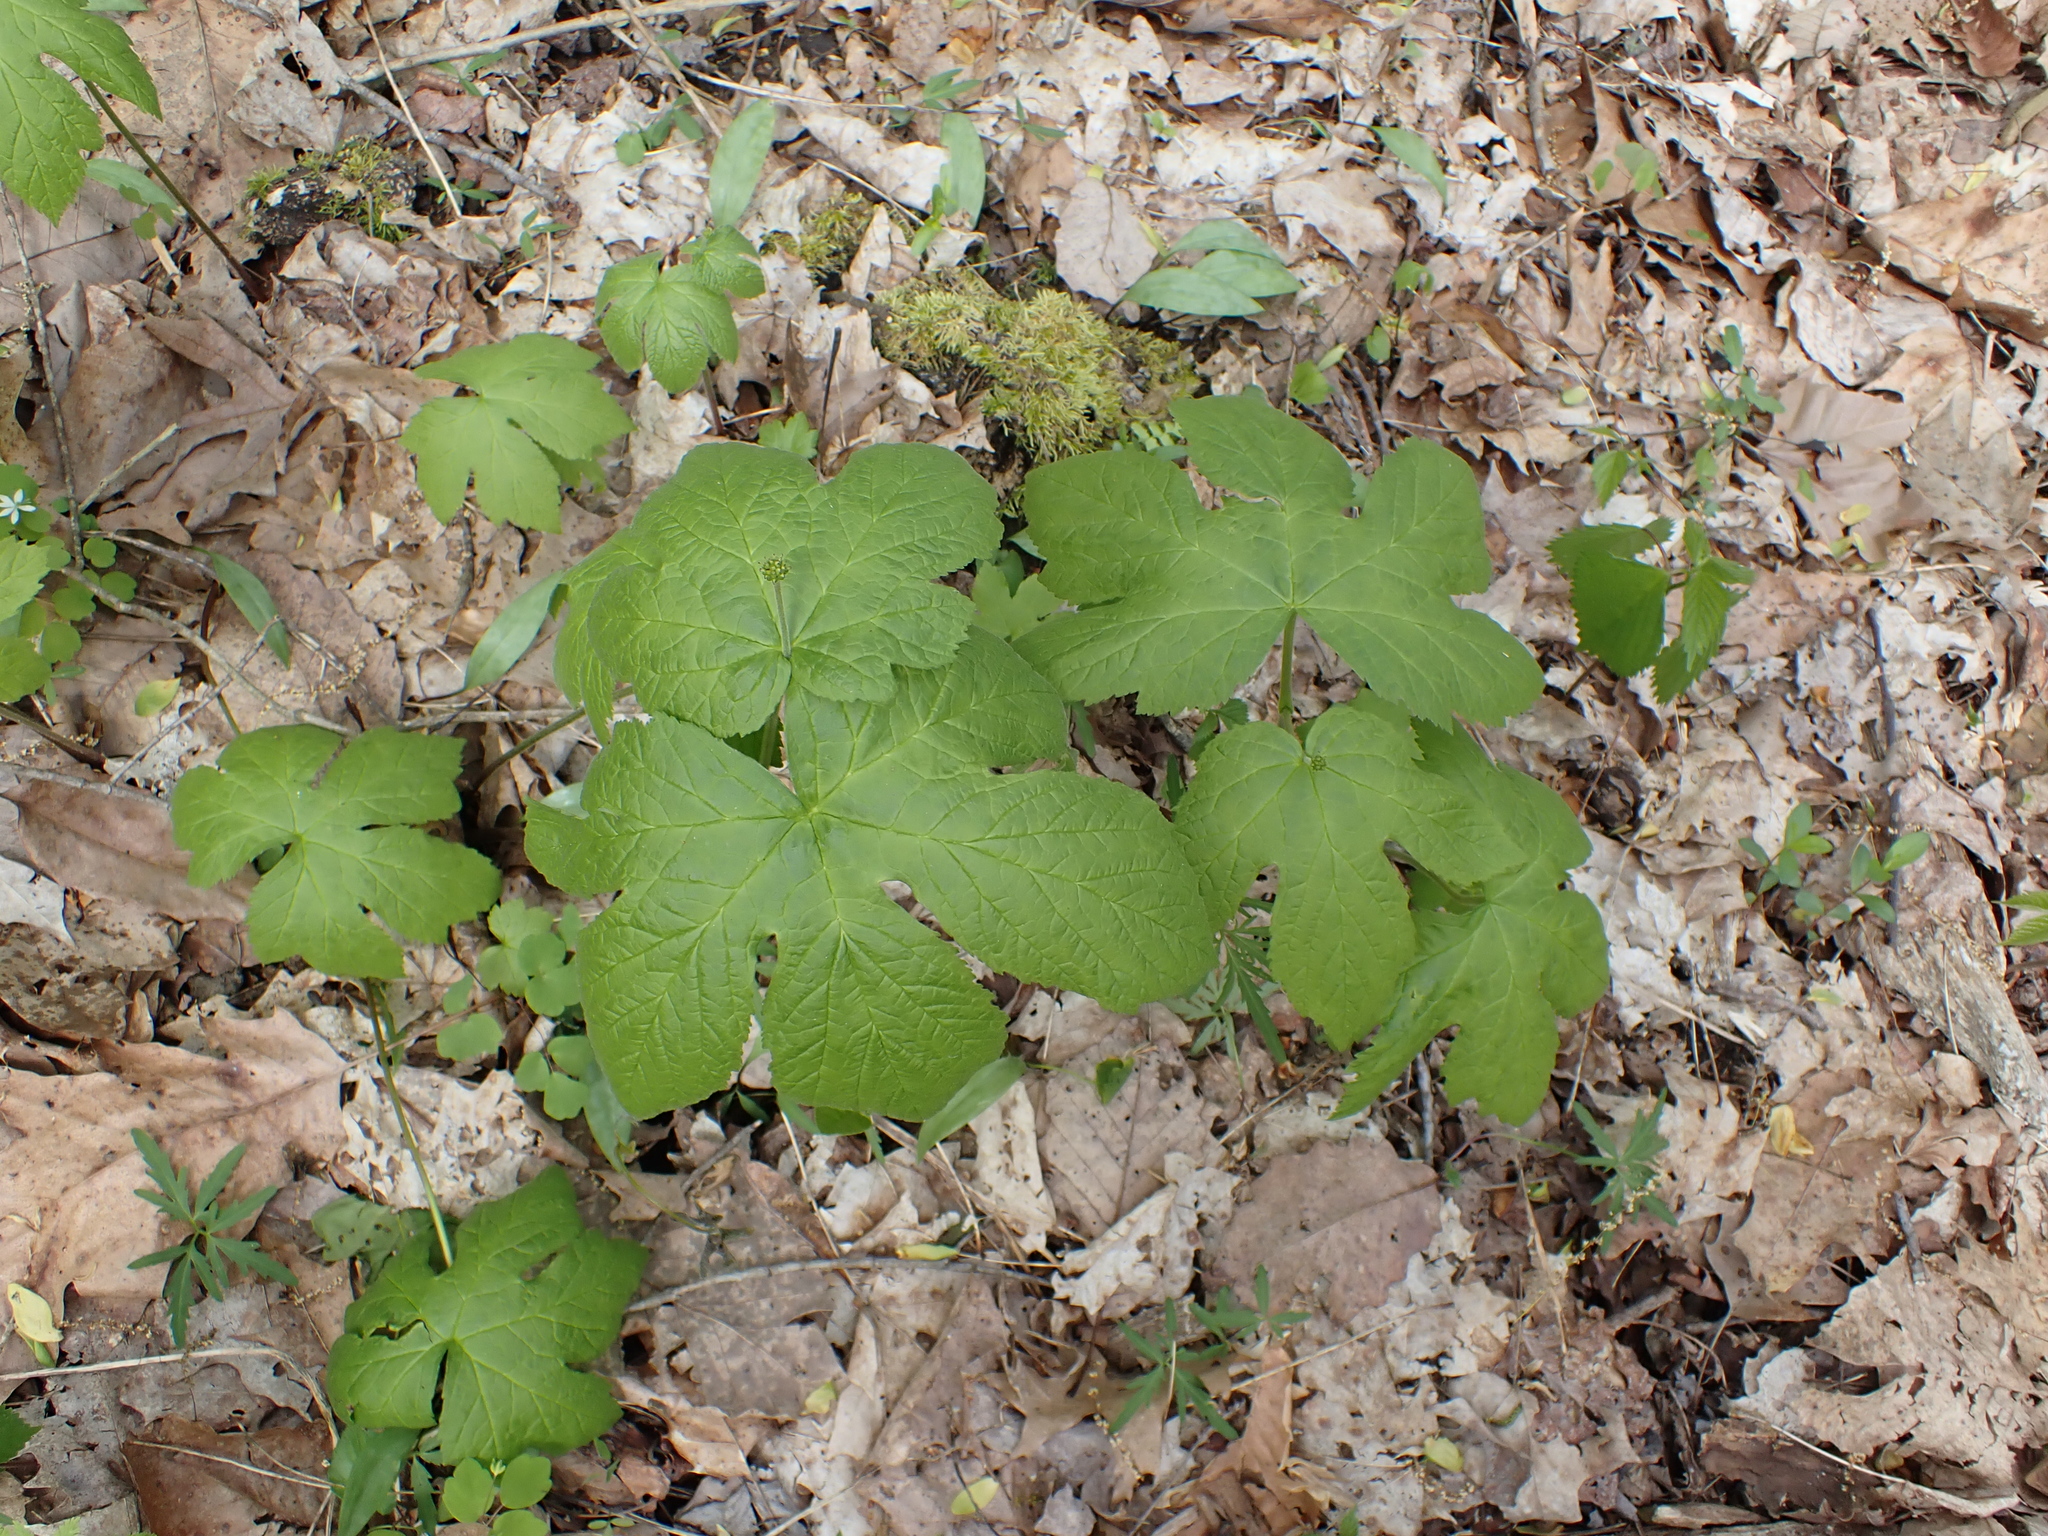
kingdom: Plantae
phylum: Tracheophyta
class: Magnoliopsida
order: Ranunculales
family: Ranunculaceae
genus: Hydrastis
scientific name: Hydrastis canadensis
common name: Goldenseal
